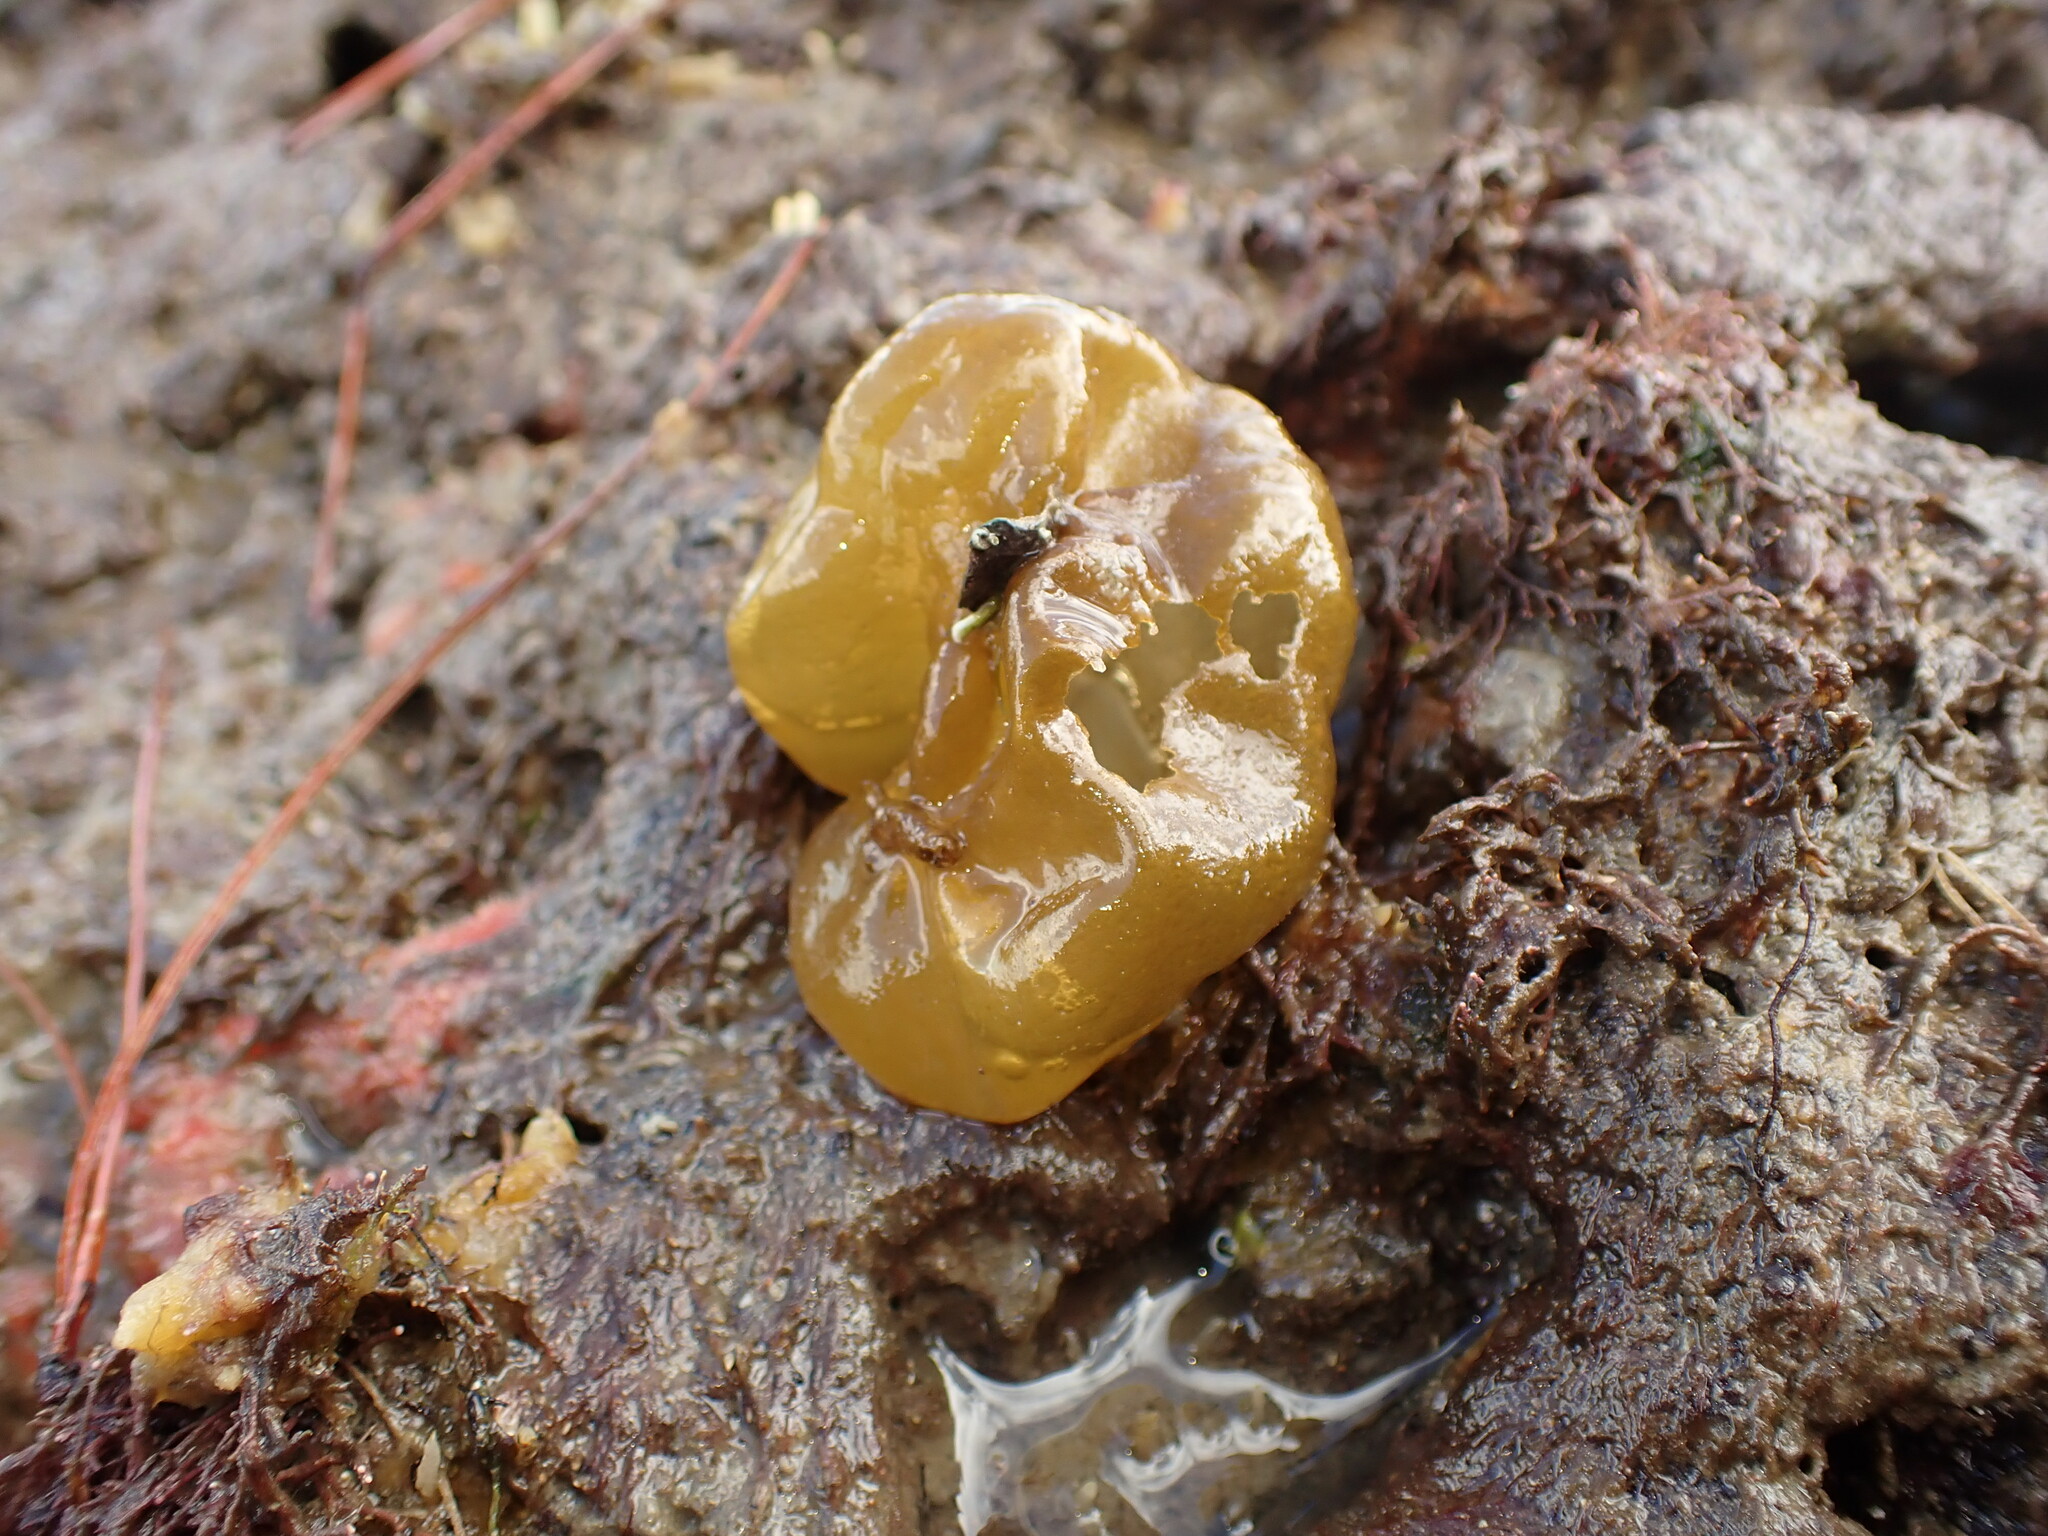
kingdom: Chromista
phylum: Ochrophyta
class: Phaeophyceae
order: Scytosiphonales
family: Scytosiphonaceae
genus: Colpomenia
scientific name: Colpomenia sinuosa
